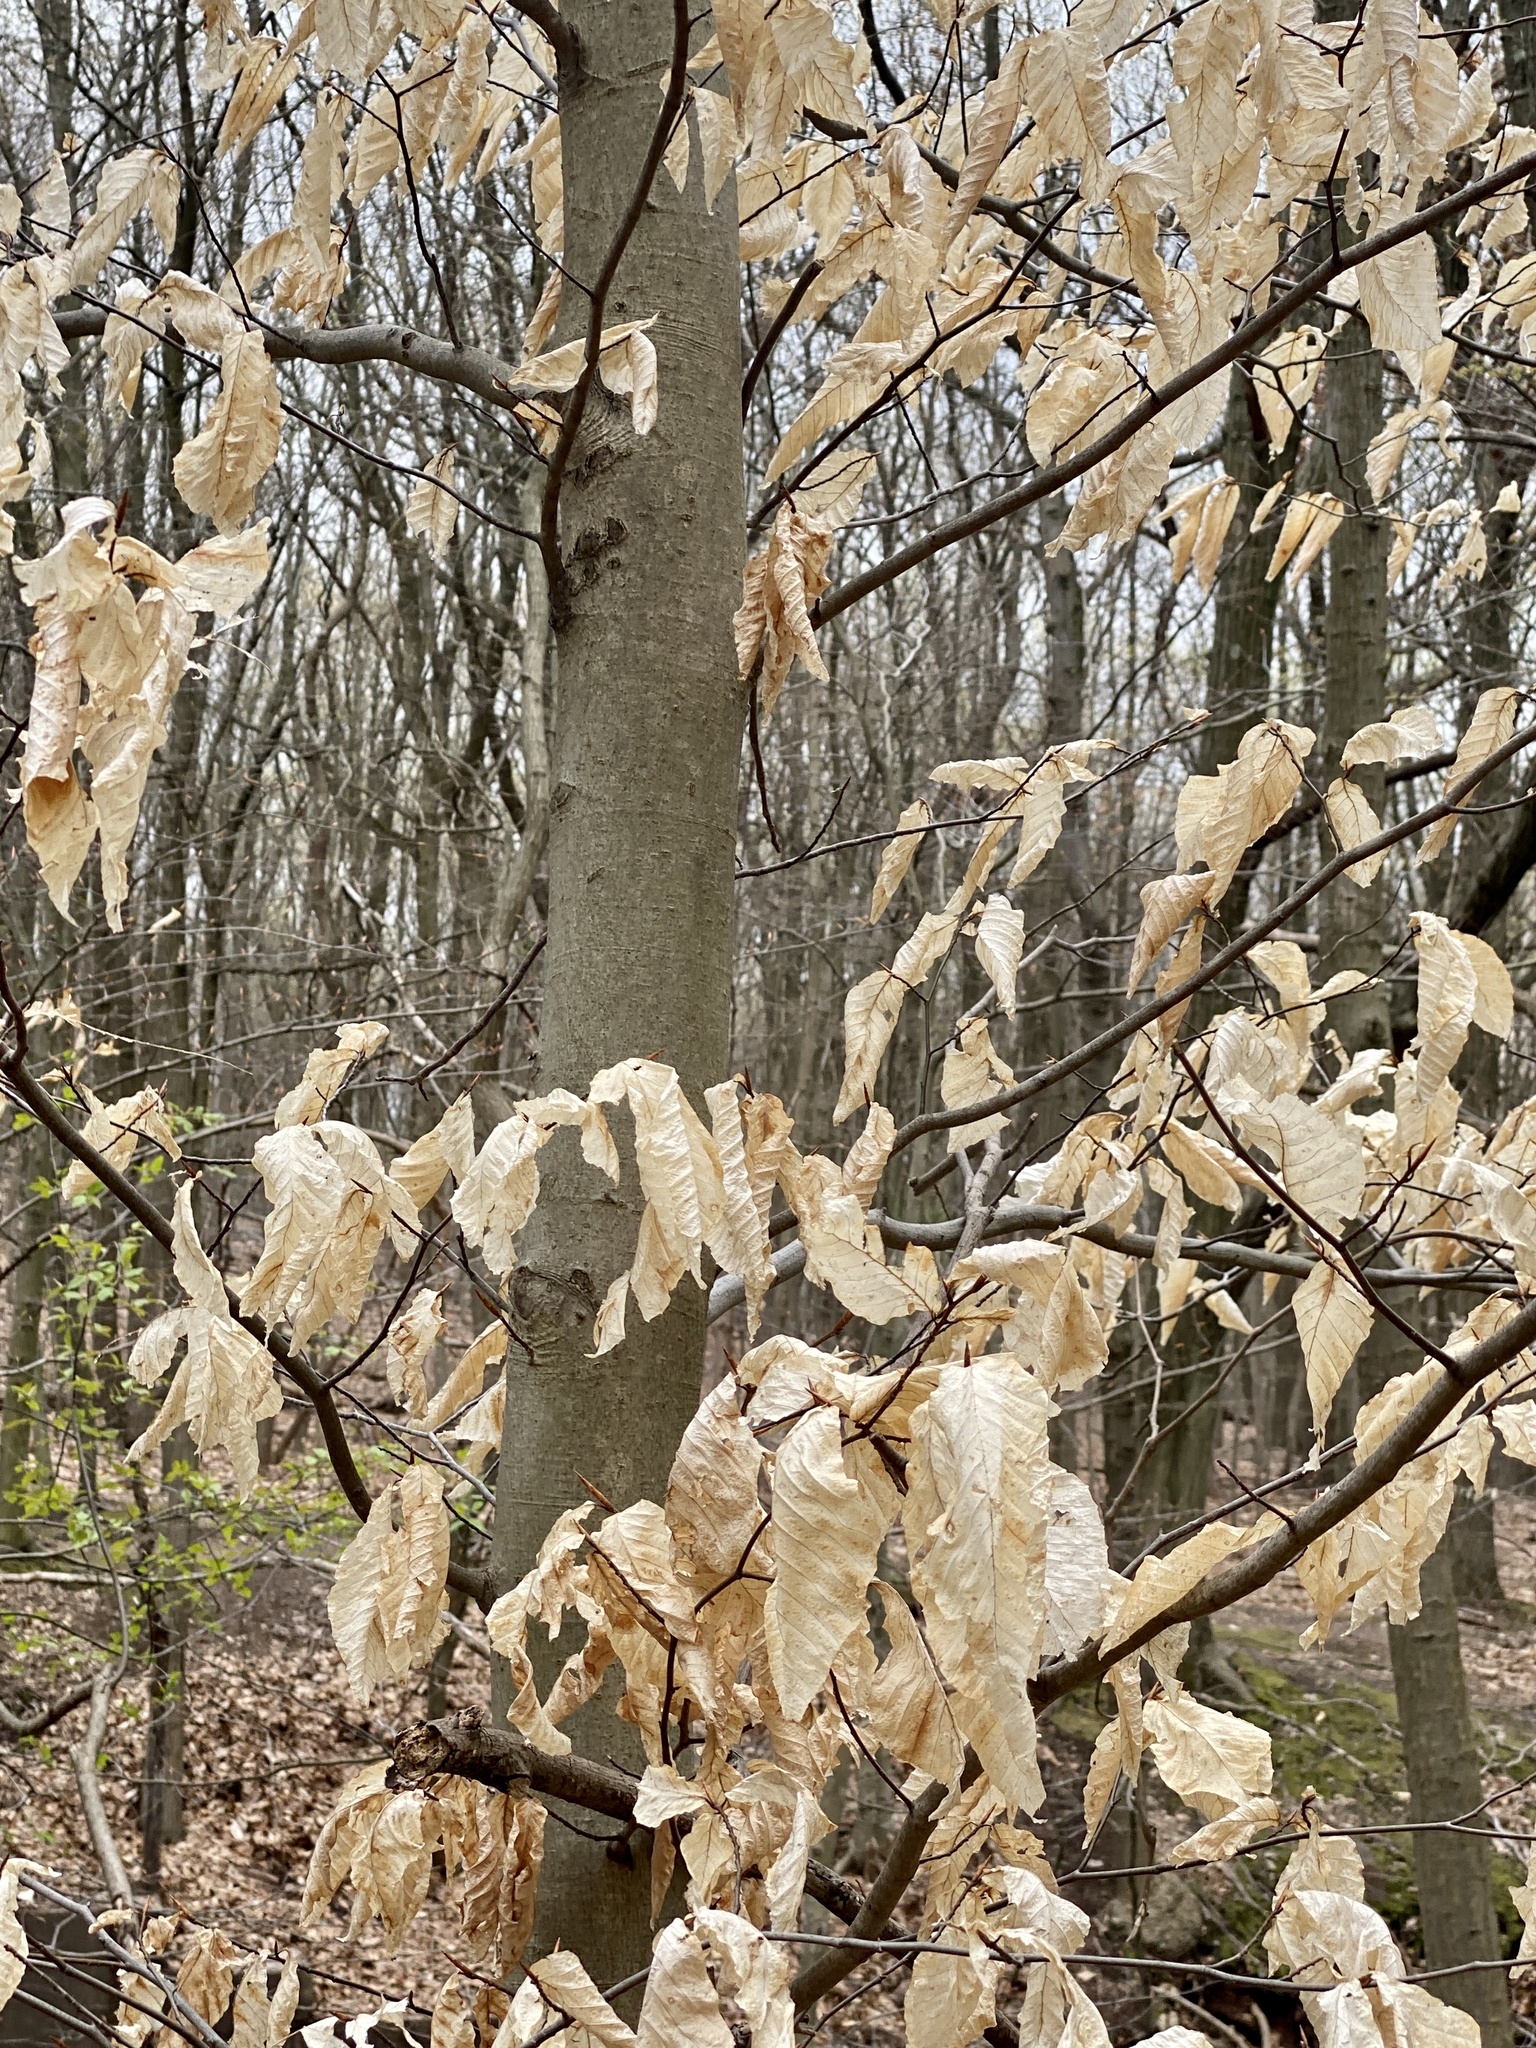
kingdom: Plantae
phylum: Tracheophyta
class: Magnoliopsida
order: Fagales
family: Fagaceae
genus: Fagus
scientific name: Fagus grandifolia
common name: American beech
